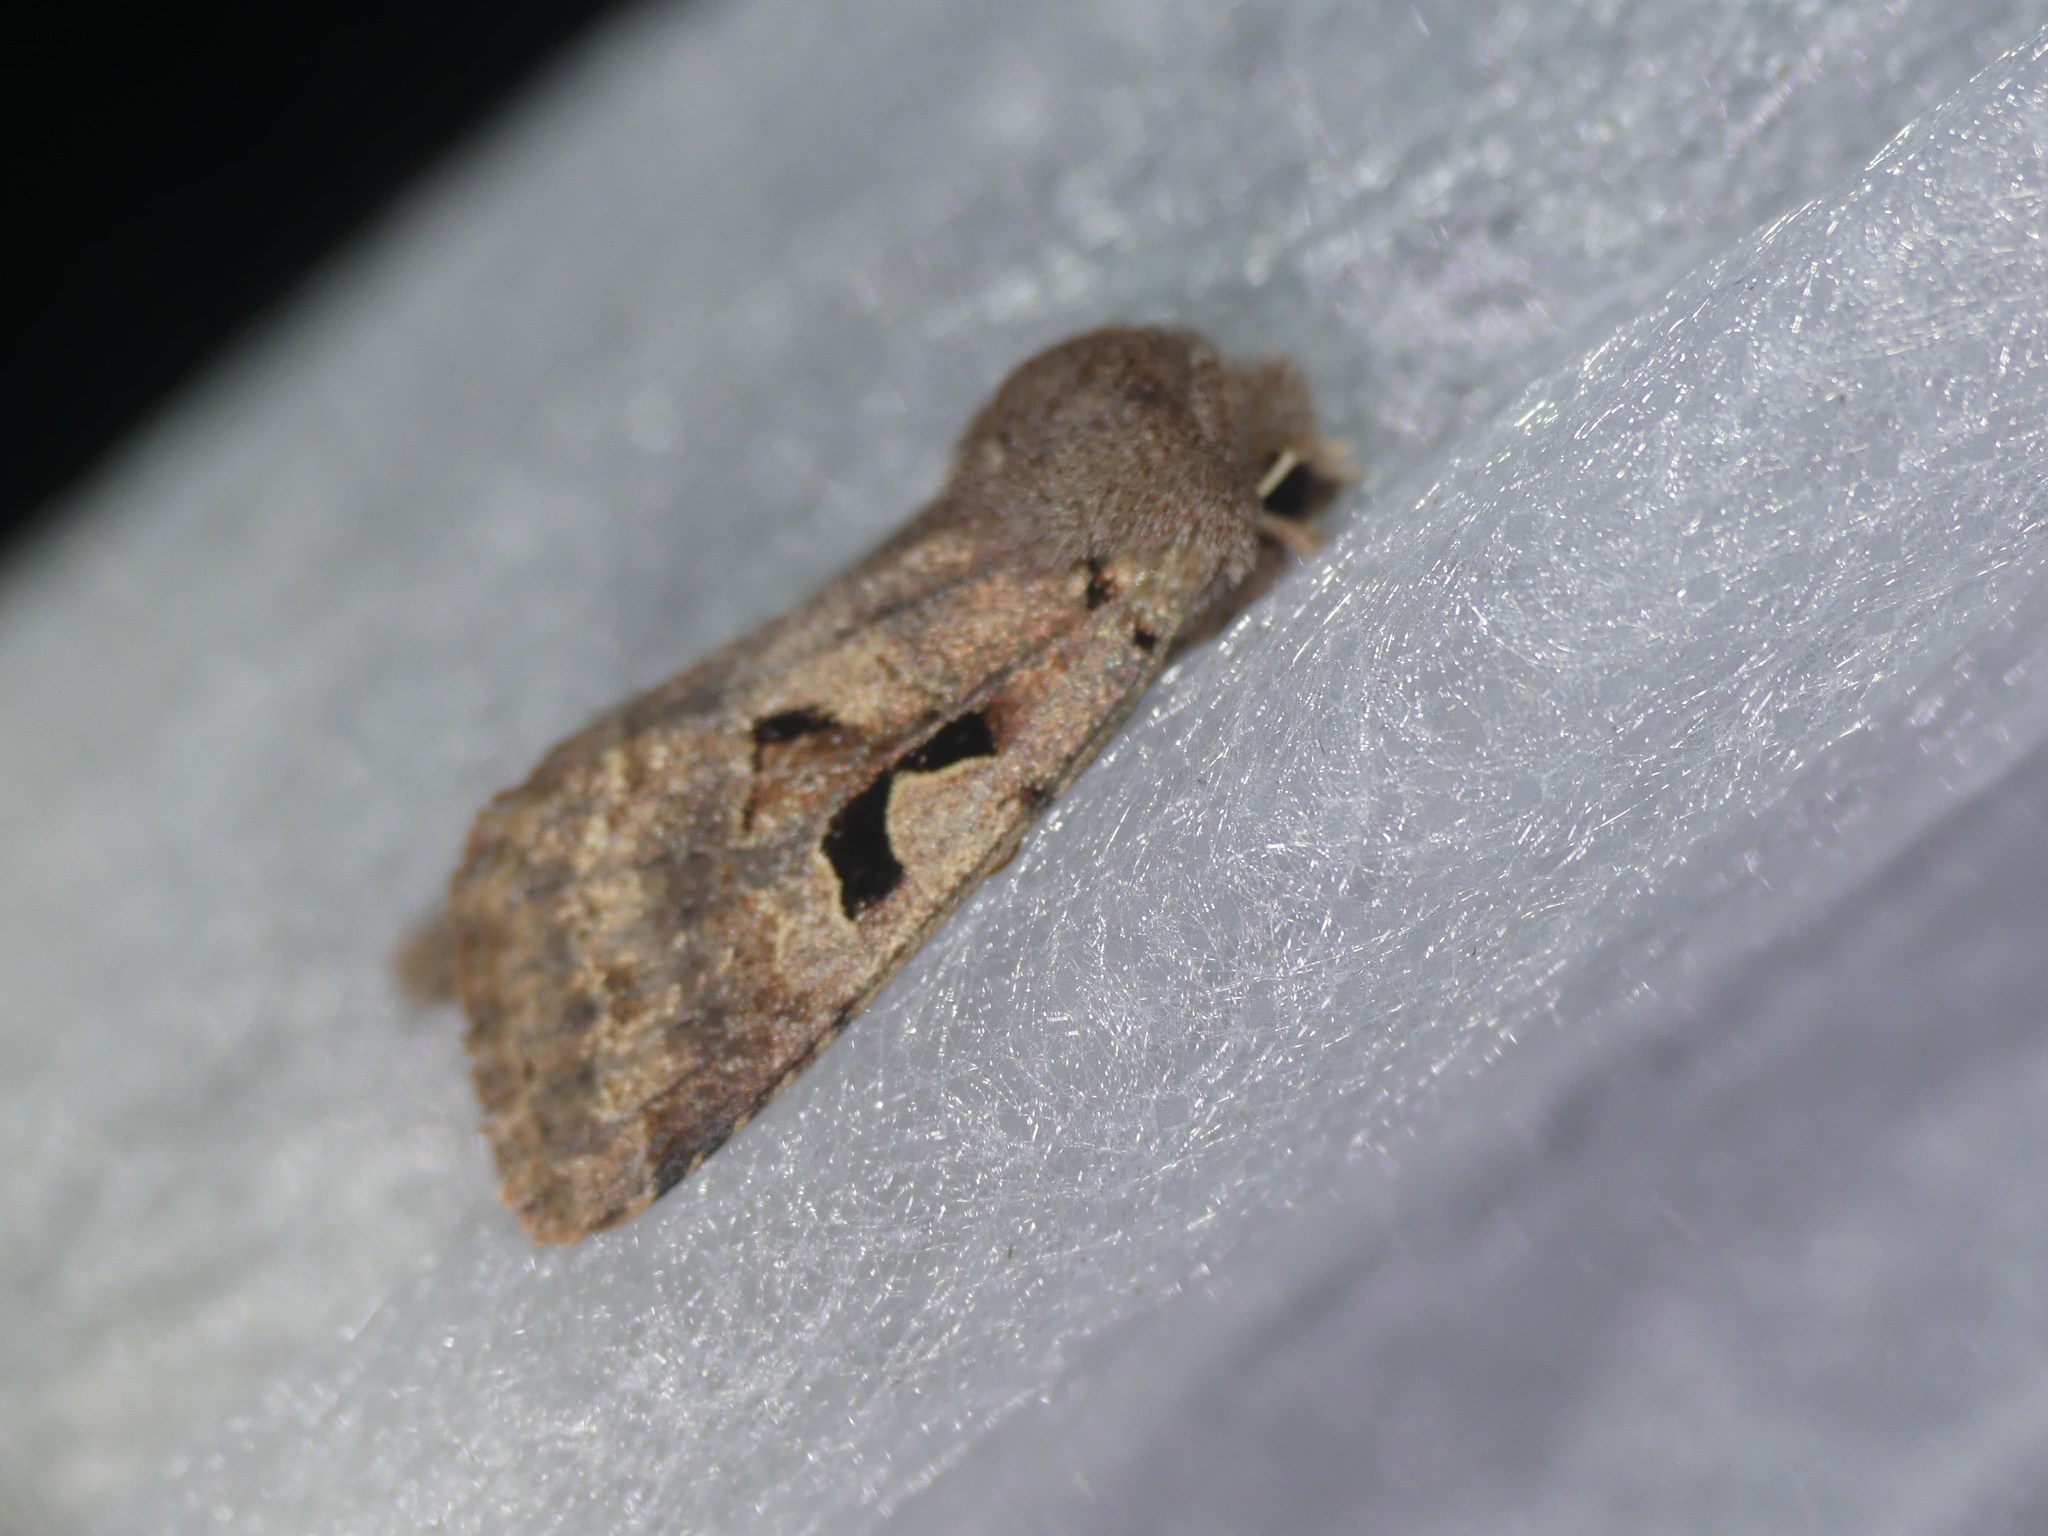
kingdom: Animalia
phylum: Arthropoda
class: Insecta
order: Lepidoptera
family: Noctuidae
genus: Orthosia
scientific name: Orthosia gothica
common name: Hebrew character
